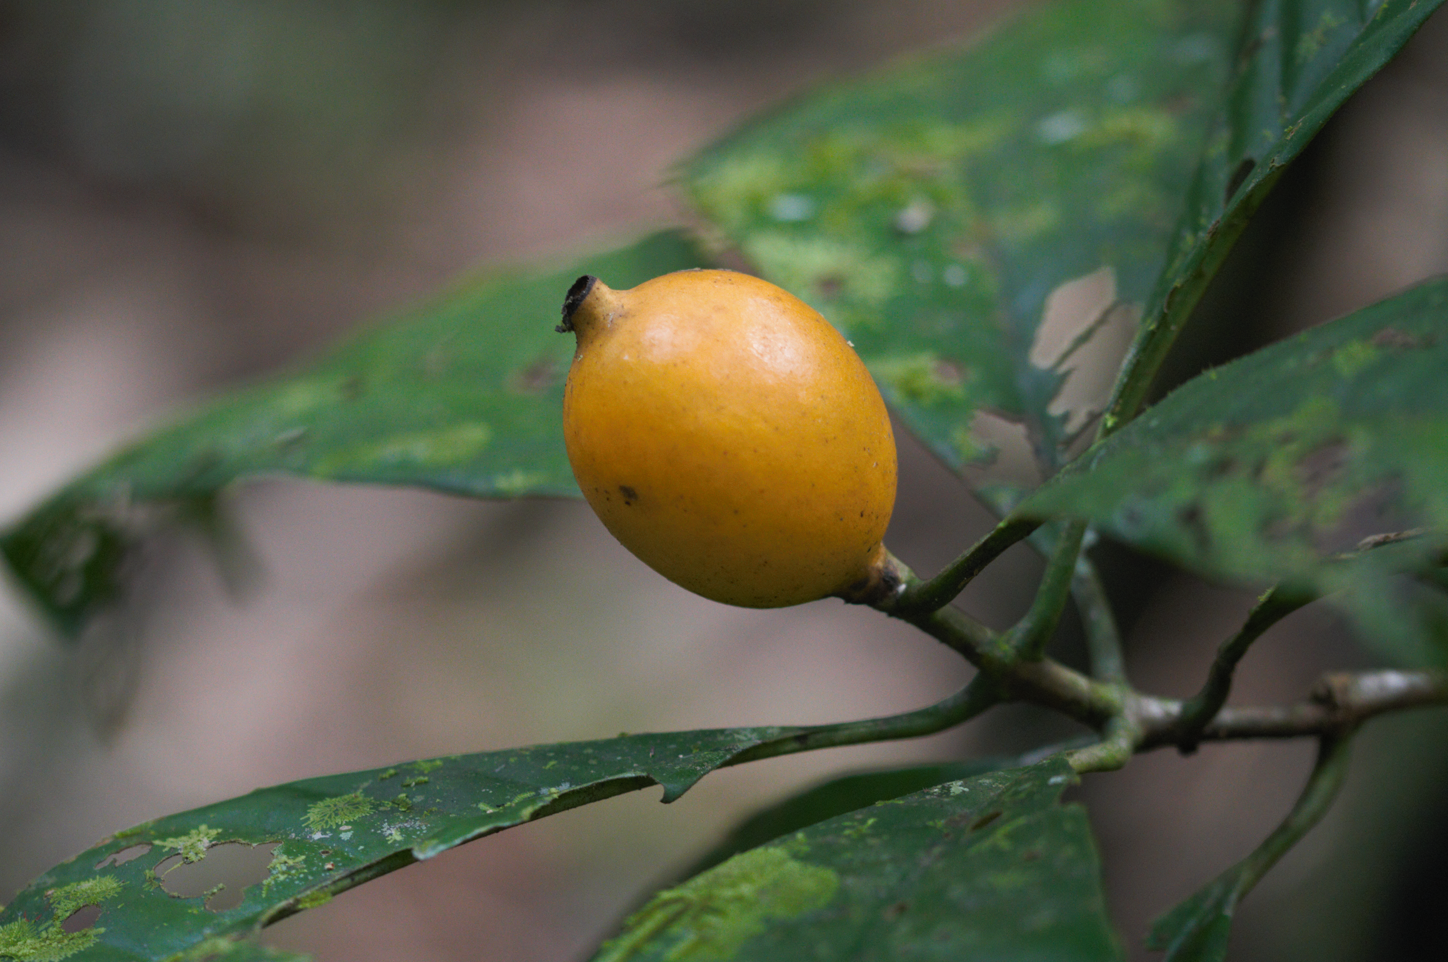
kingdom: Plantae
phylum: Tracheophyta
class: Magnoliopsida
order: Gentianales
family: Rubiaceae
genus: Kutchubaea
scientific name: Kutchubaea surinamensis
